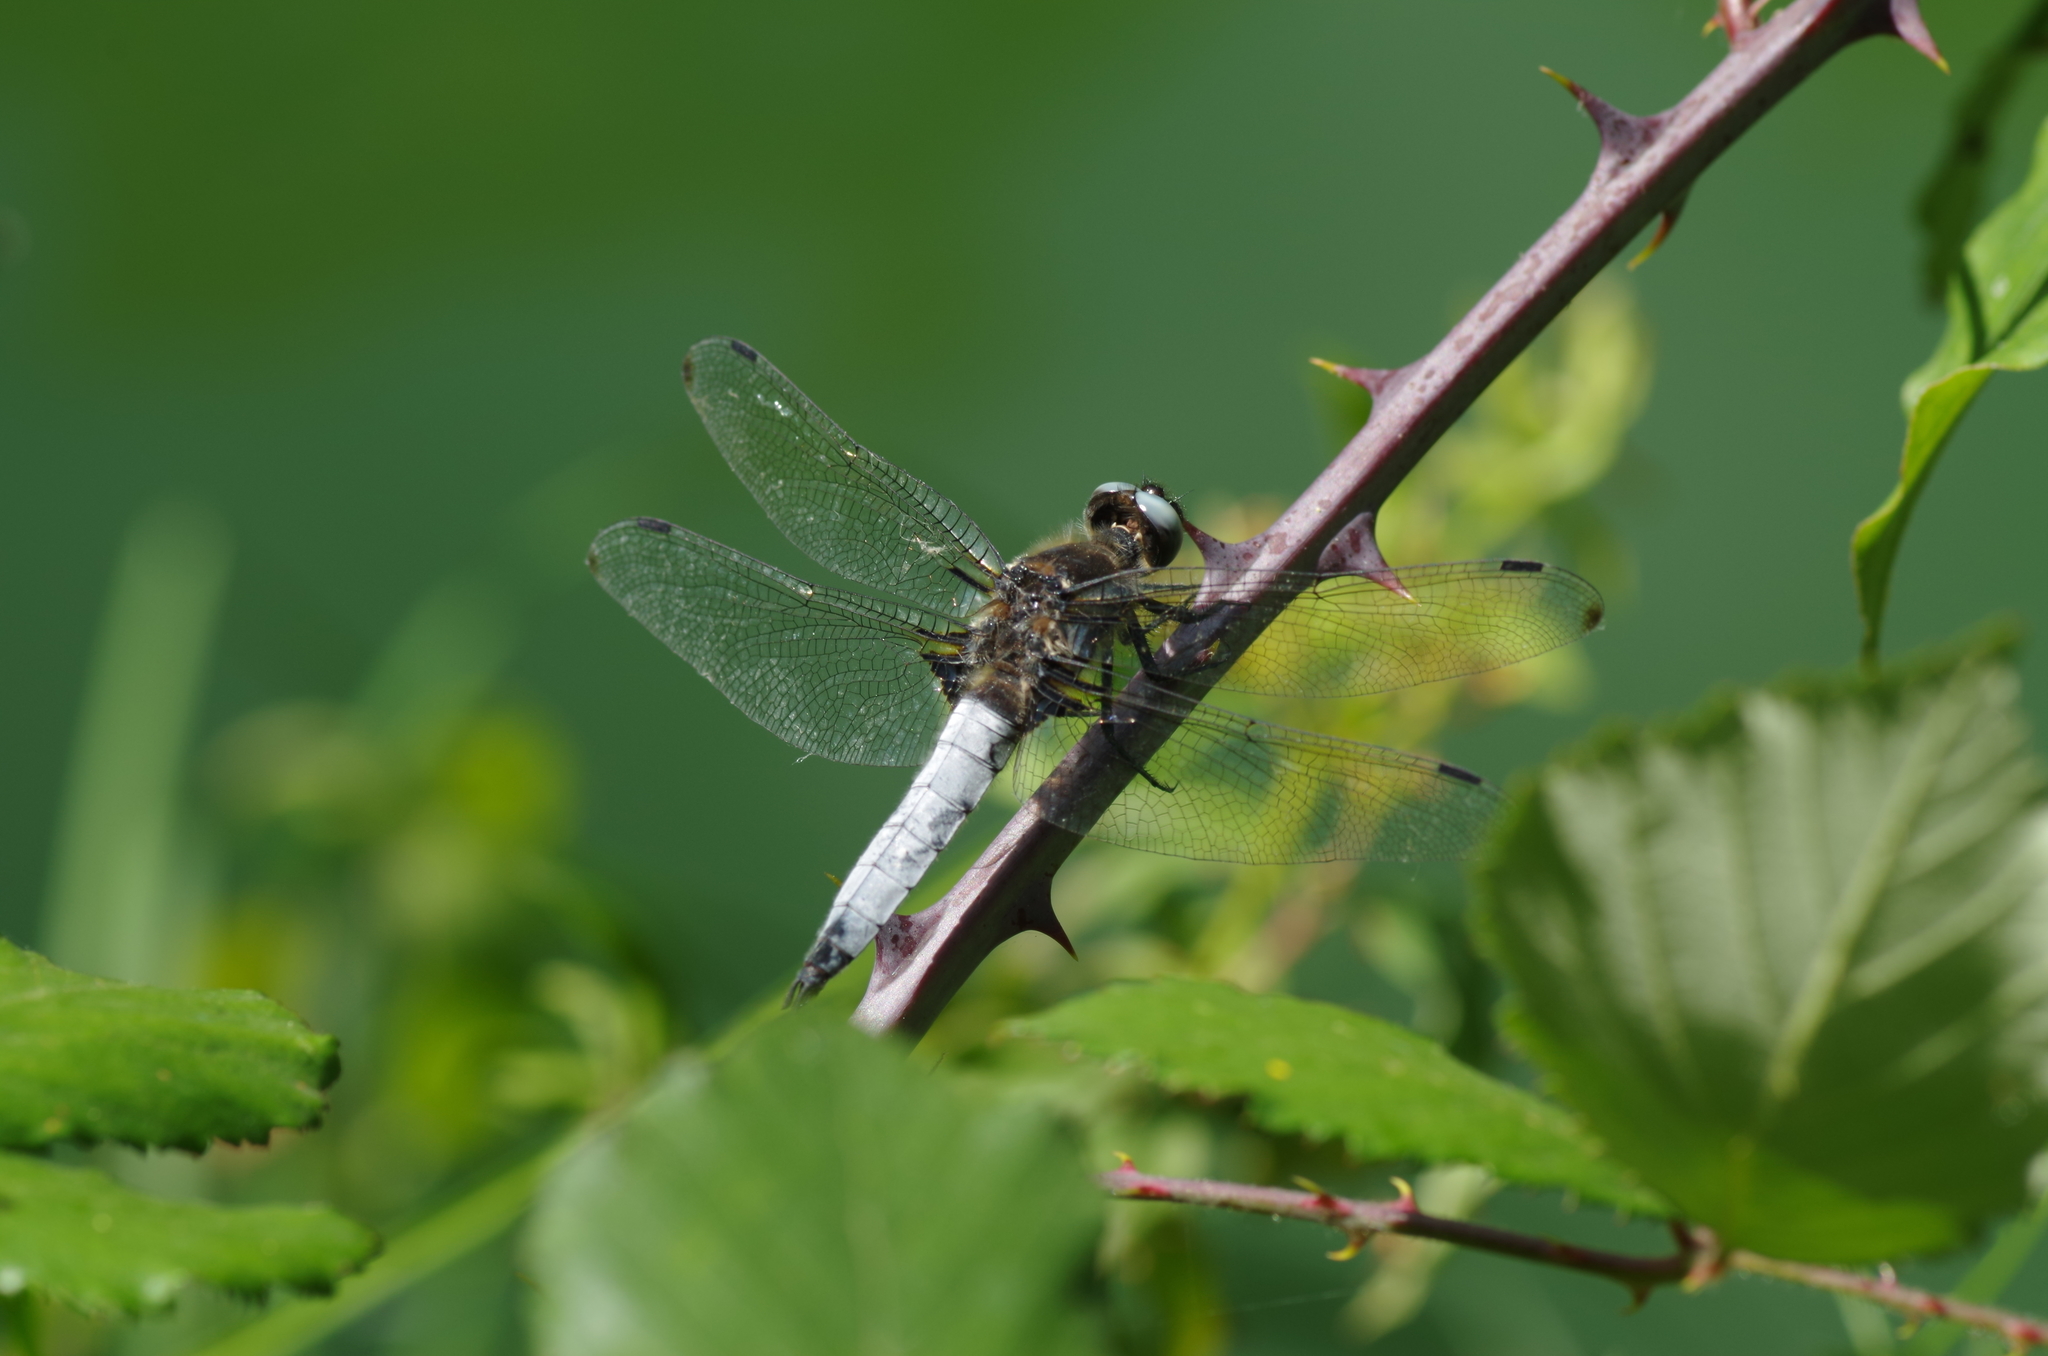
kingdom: Animalia
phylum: Arthropoda
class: Insecta
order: Odonata
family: Libellulidae
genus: Libellula
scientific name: Libellula fulva
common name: Blue chaser
